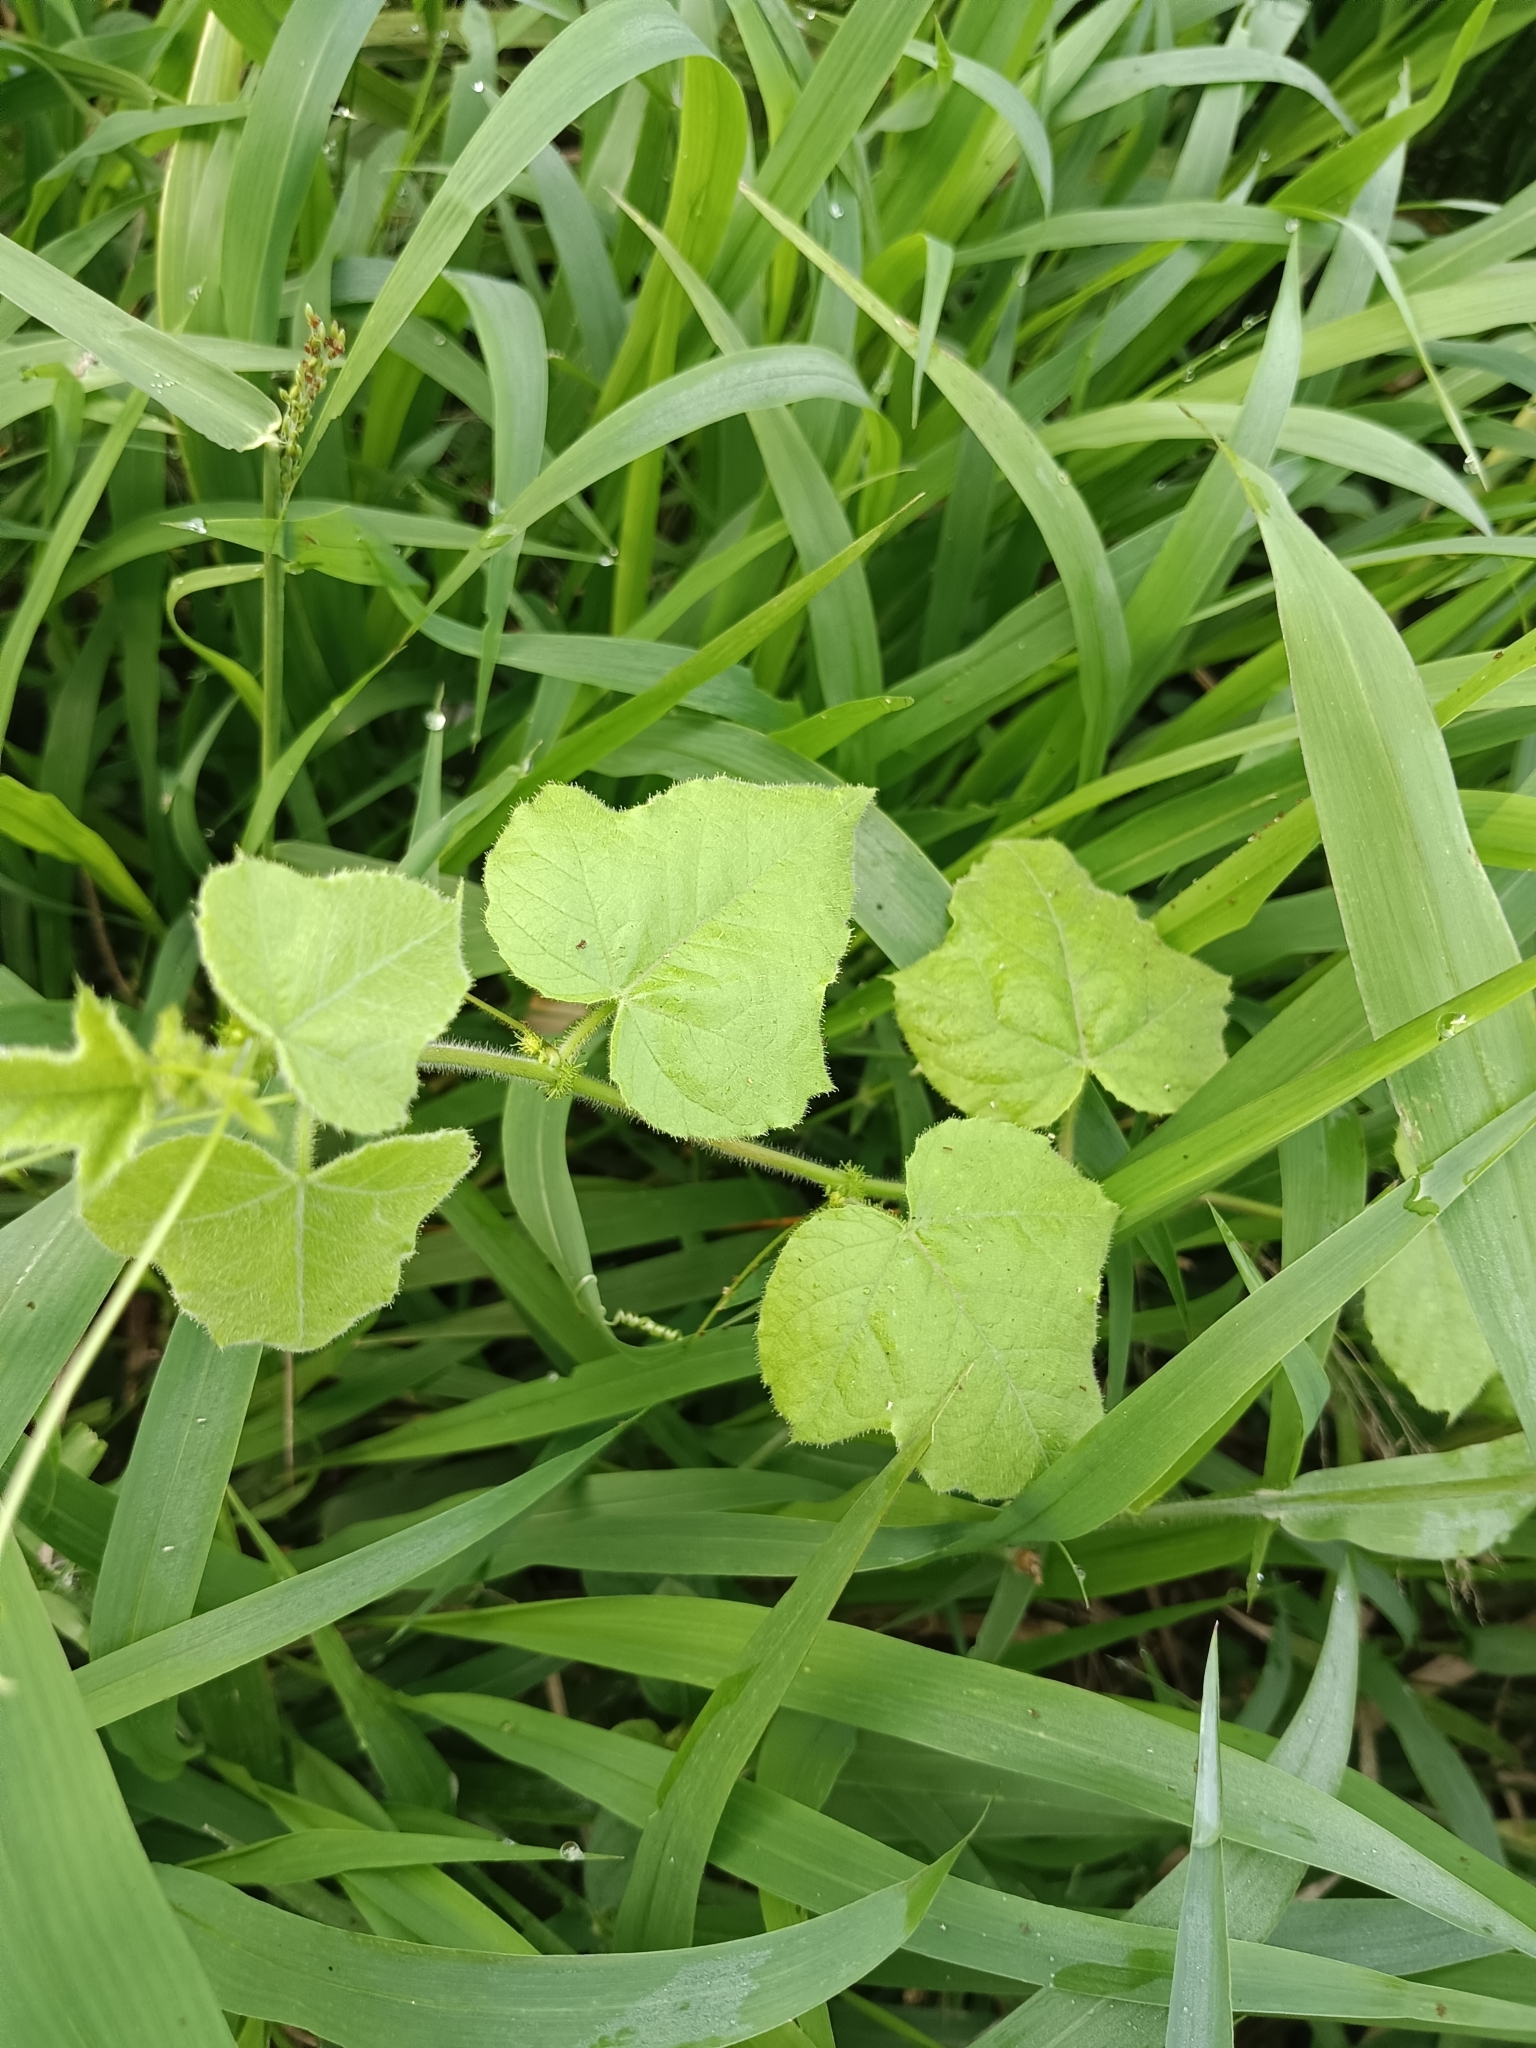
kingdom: Plantae
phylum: Tracheophyta
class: Magnoliopsida
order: Malpighiales
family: Passifloraceae
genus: Passiflora
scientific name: Passiflora vesicaria
